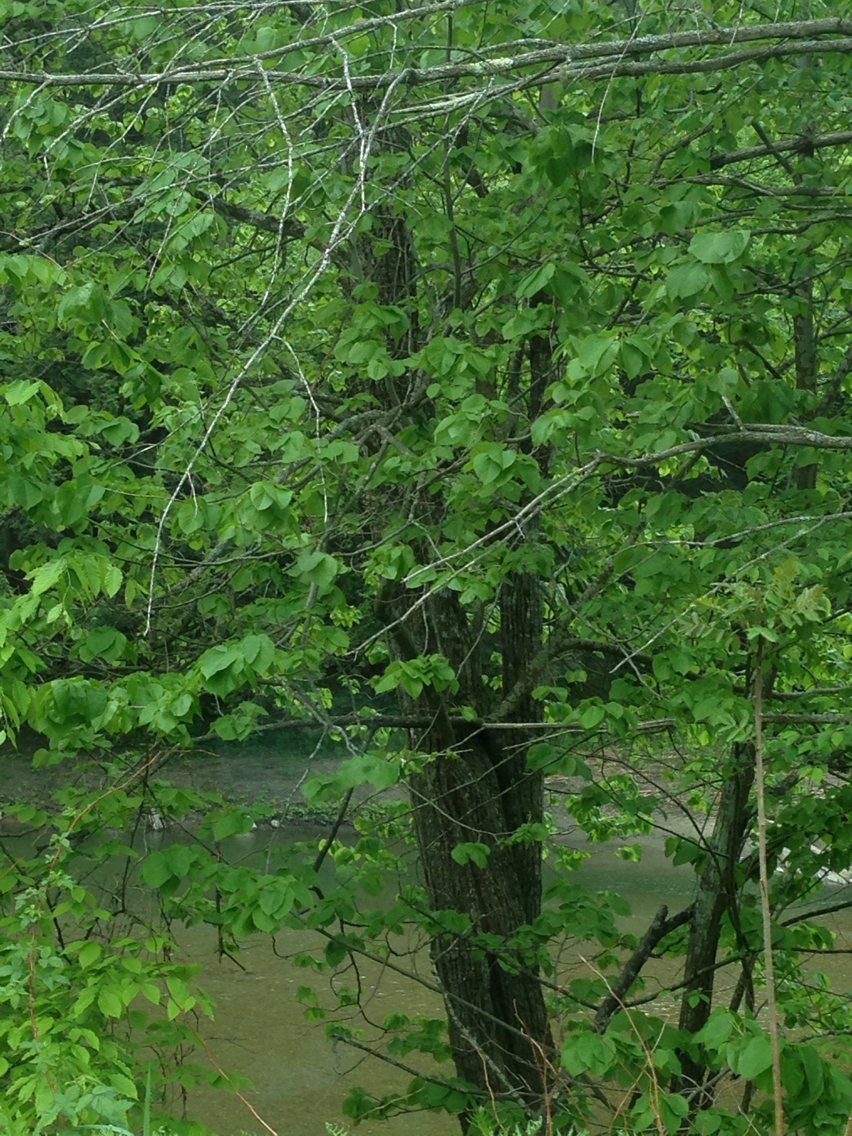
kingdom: Plantae
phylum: Tracheophyta
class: Magnoliopsida
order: Malvales
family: Malvaceae
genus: Tilia
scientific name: Tilia americana
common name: Basswood
